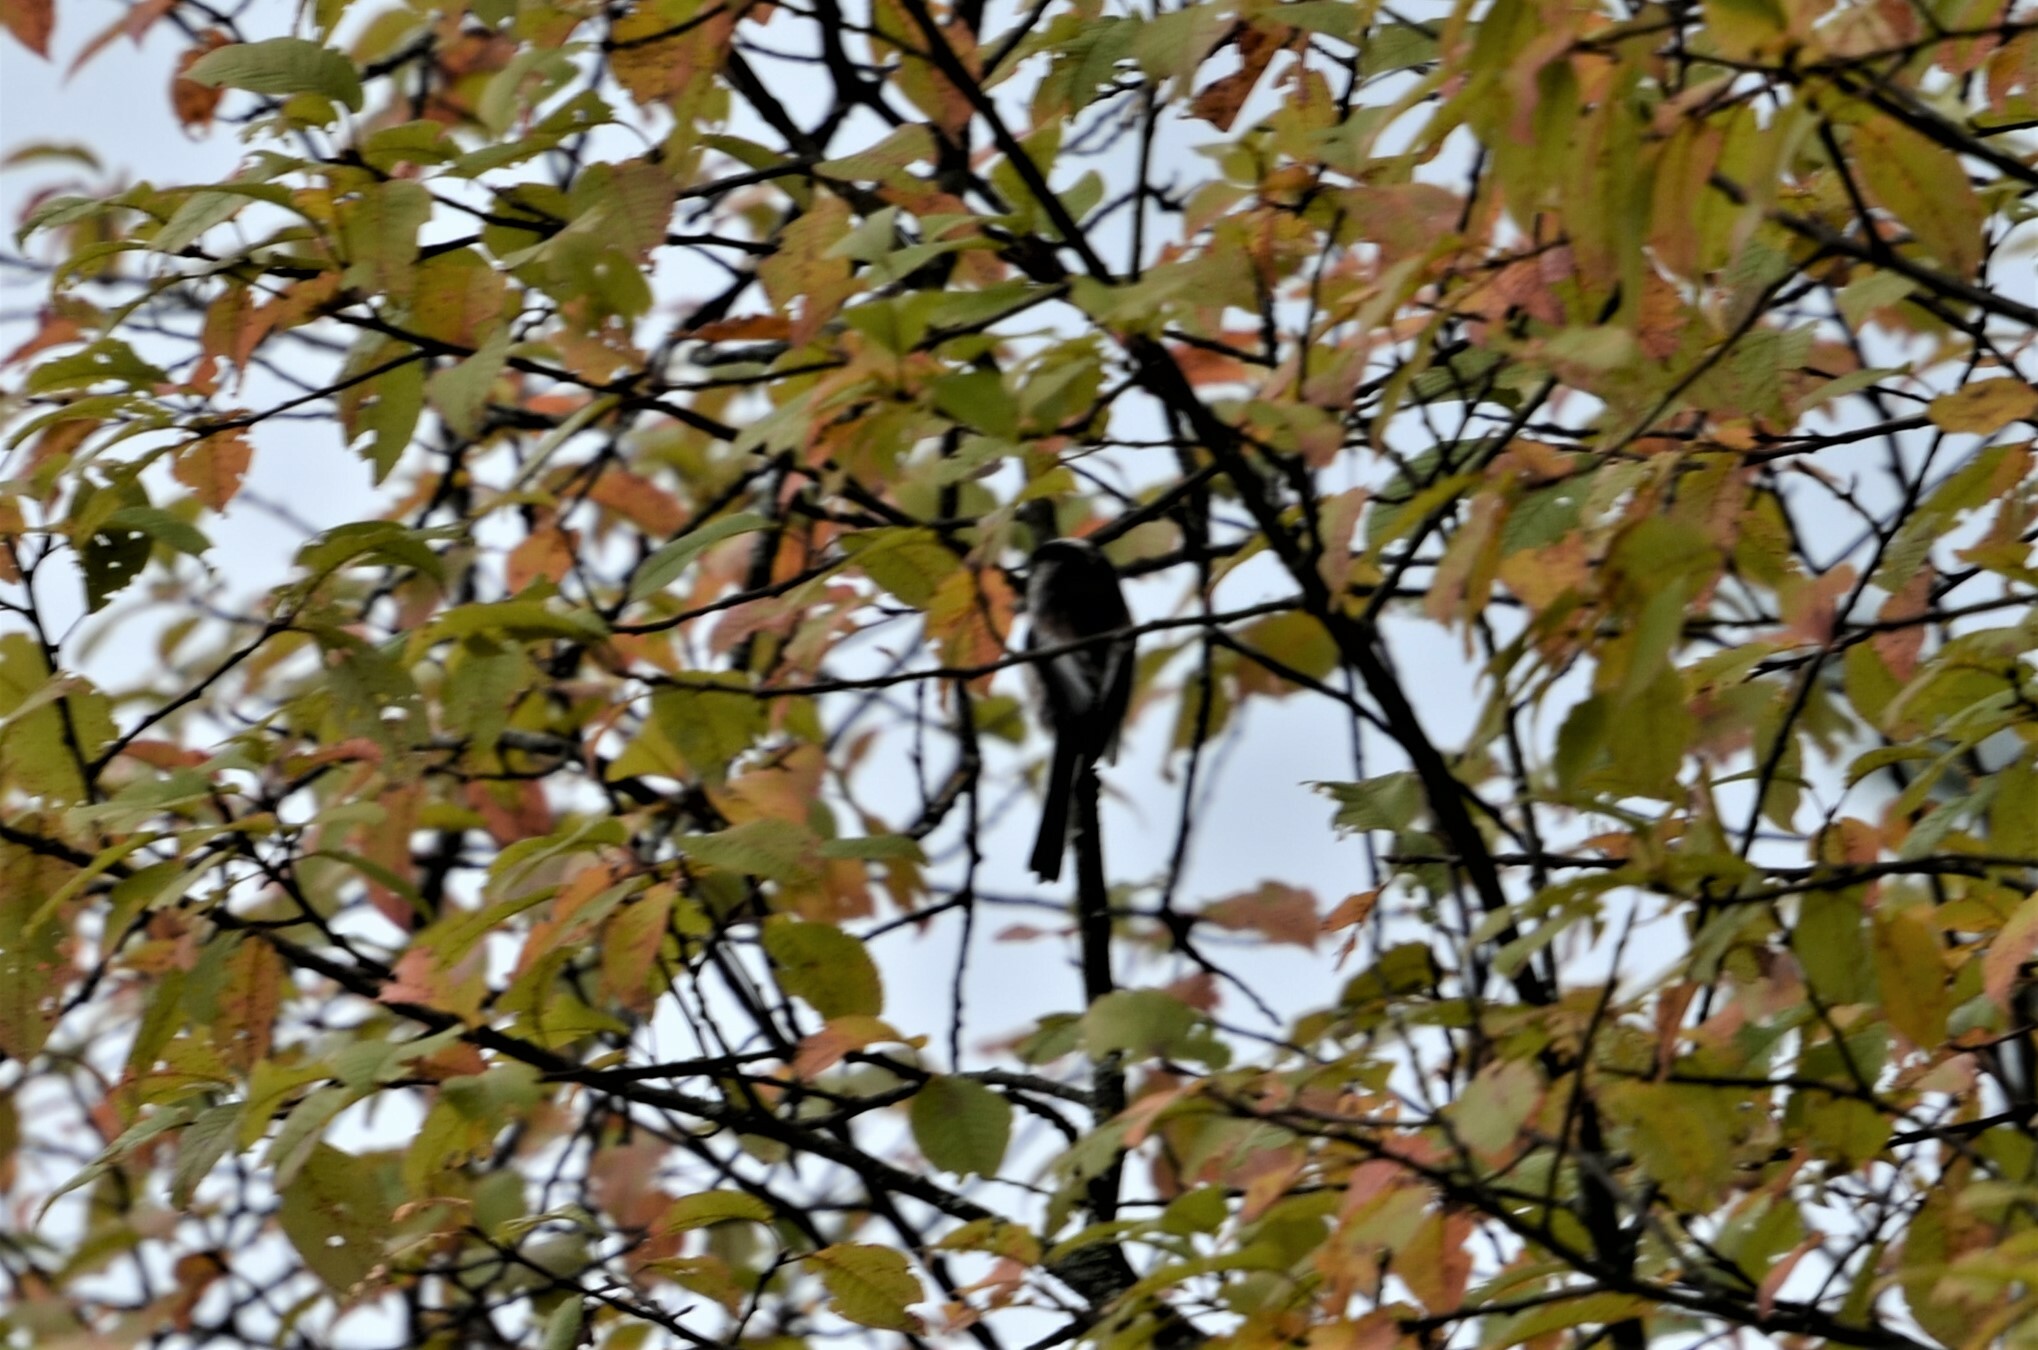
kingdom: Animalia
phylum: Chordata
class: Aves
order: Passeriformes
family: Aegithalidae
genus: Aegithalos
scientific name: Aegithalos caudatus
